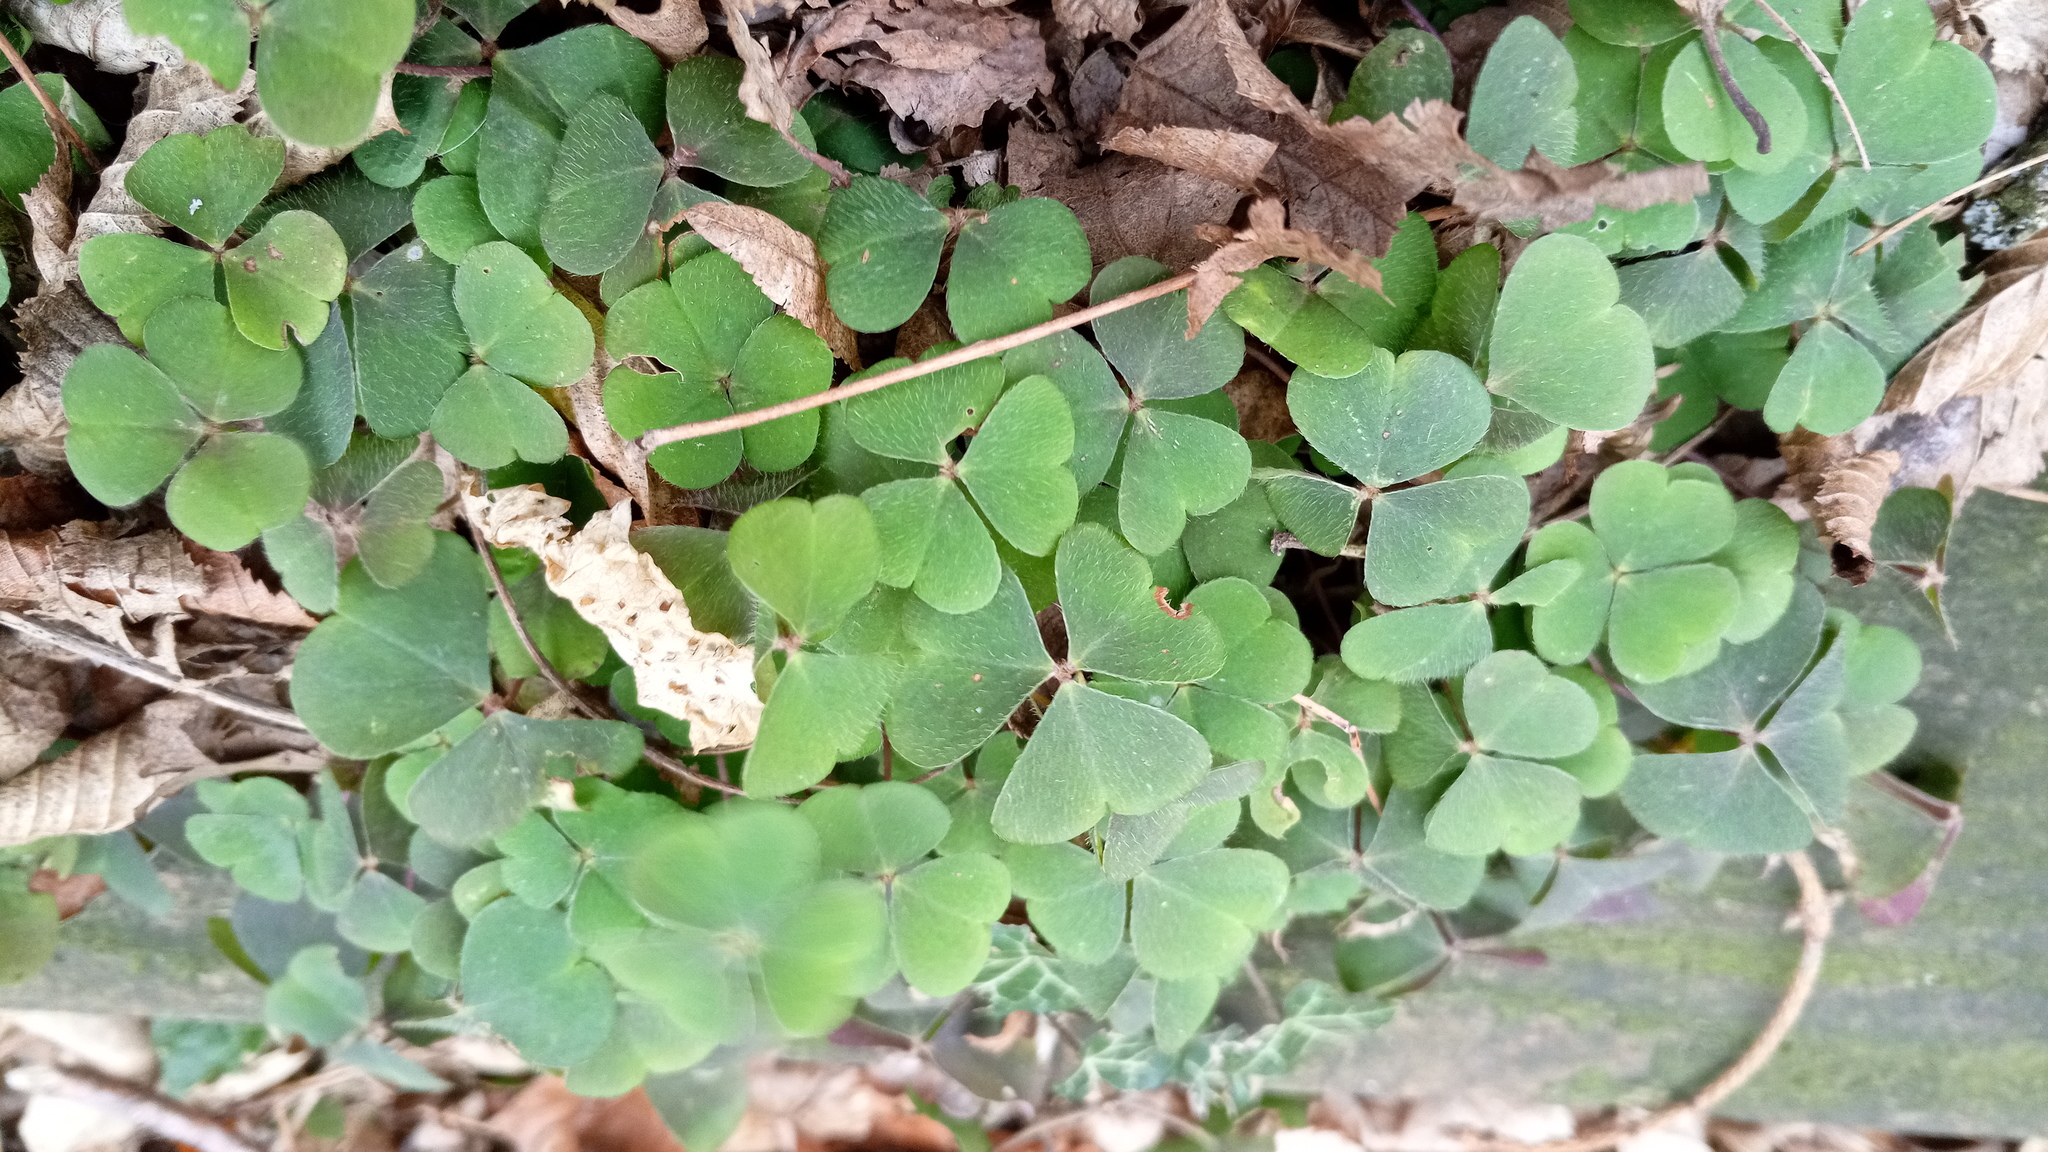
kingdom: Plantae
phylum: Tracheophyta
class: Magnoliopsida
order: Oxalidales
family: Oxalidaceae
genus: Oxalis
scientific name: Oxalis acetosella
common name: Wood-sorrel
